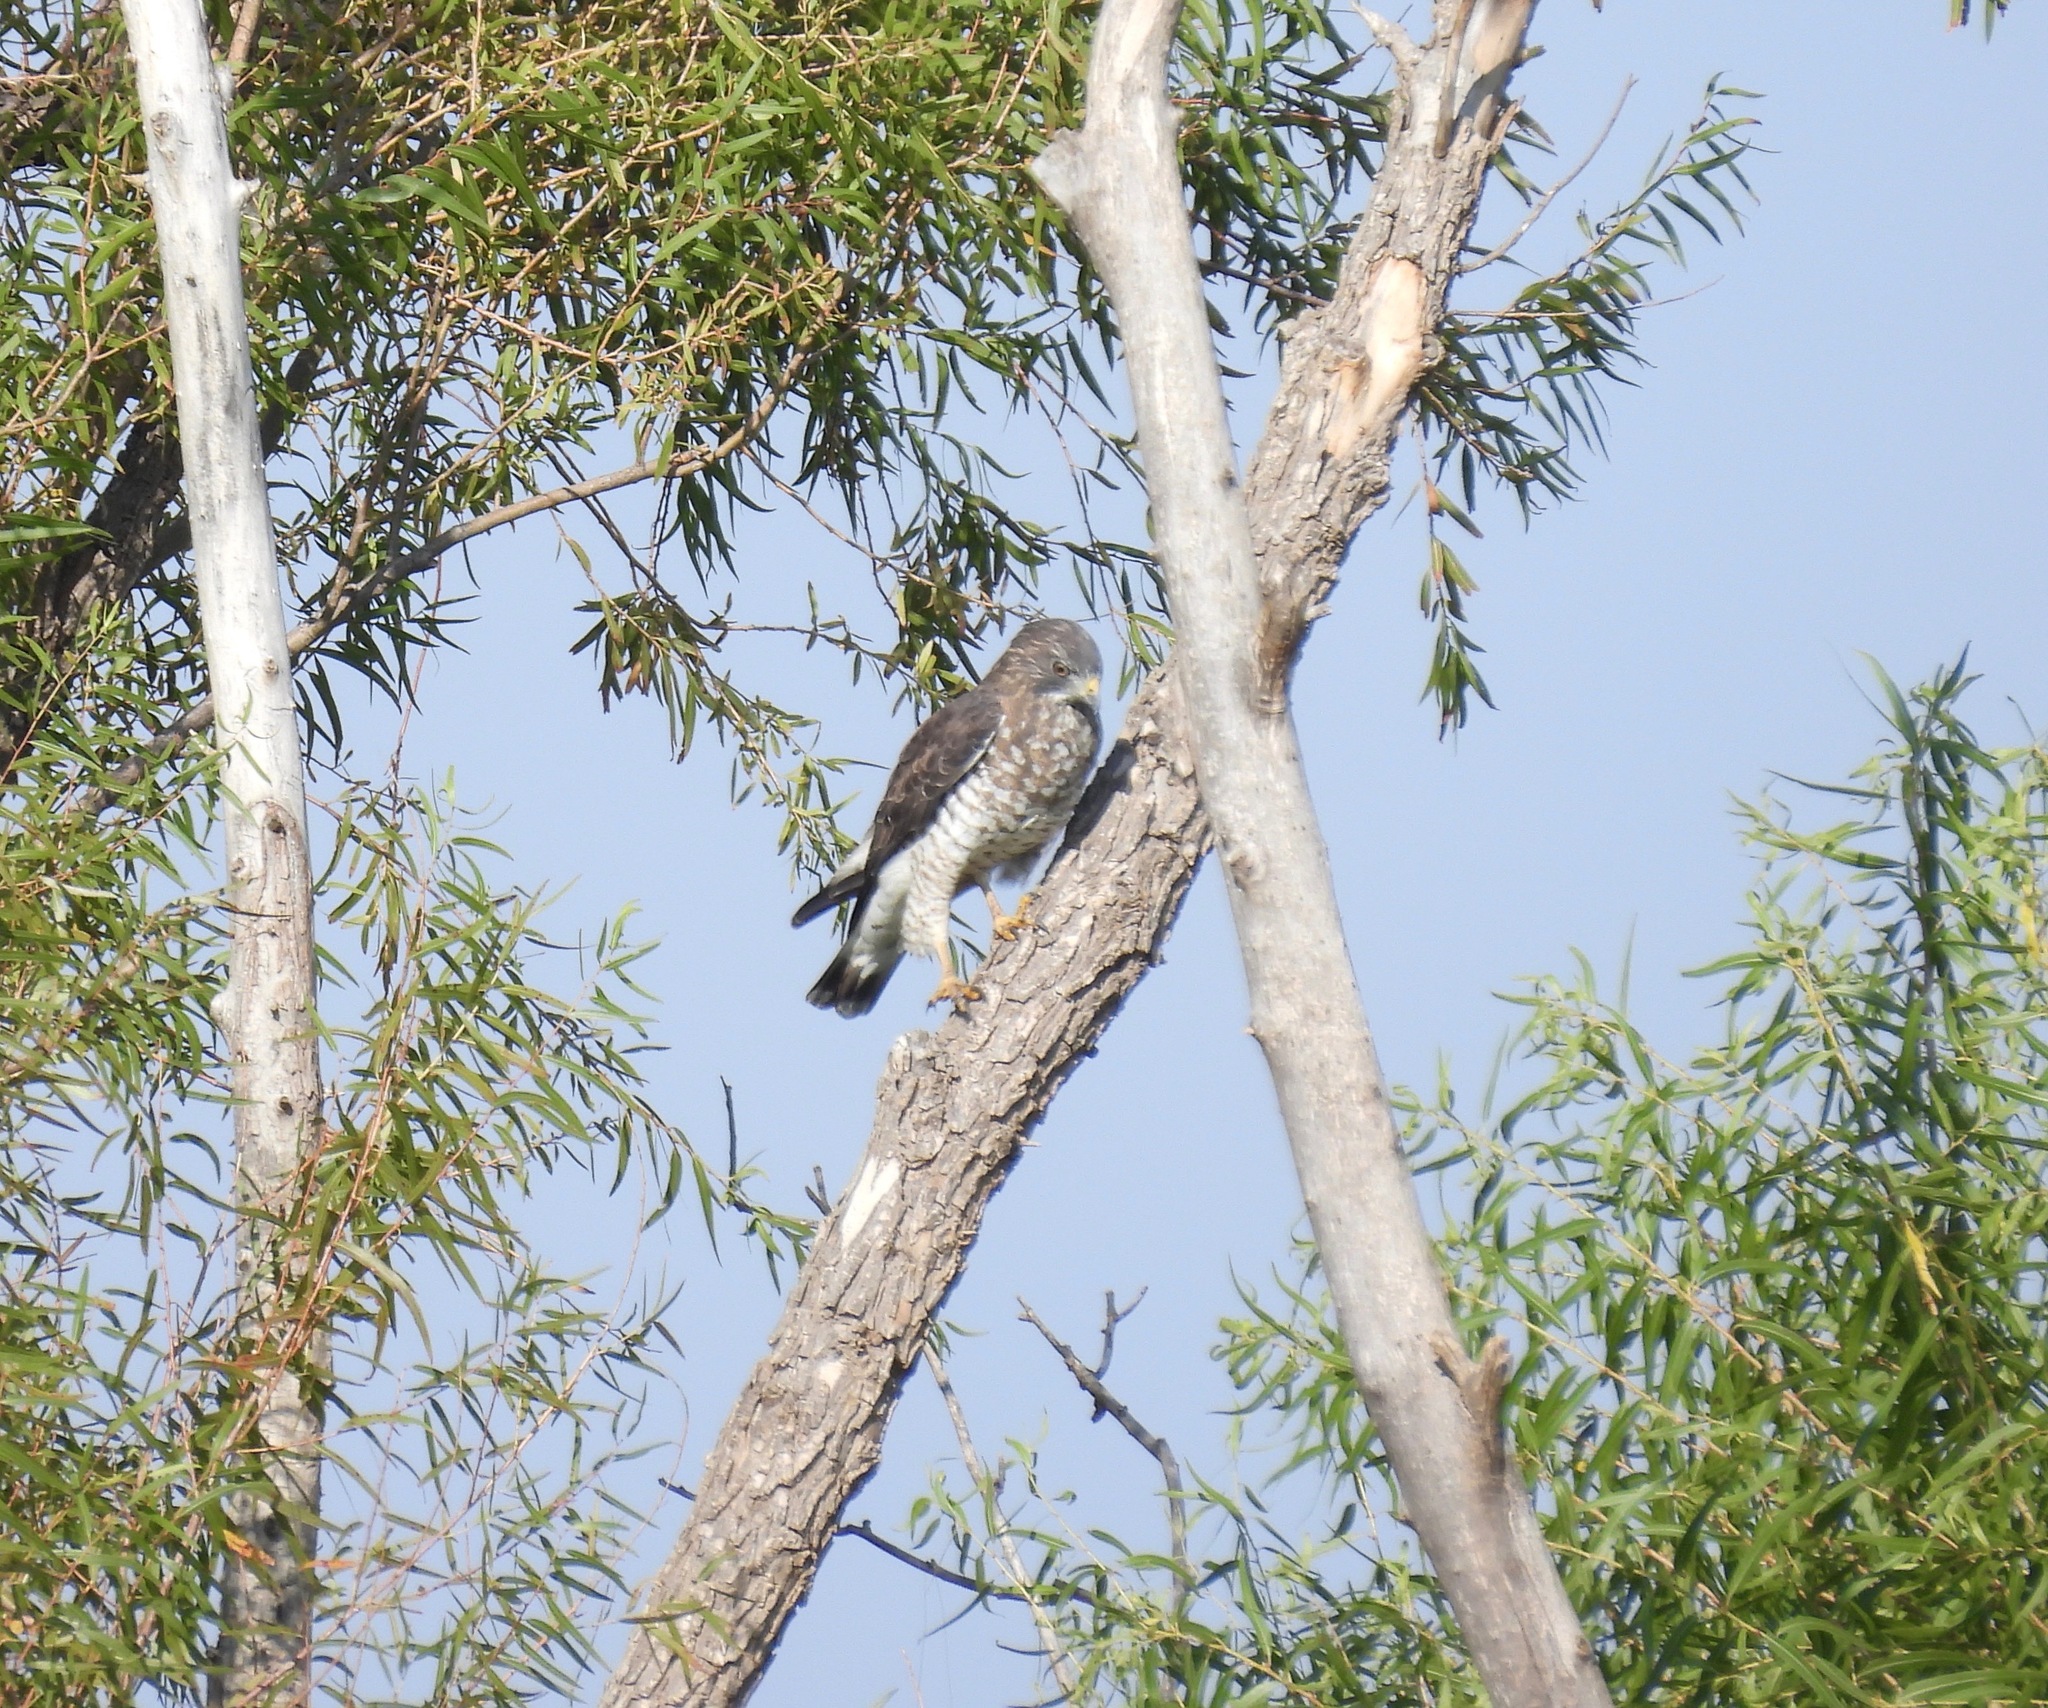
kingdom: Animalia
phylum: Chordata
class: Aves
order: Accipitriformes
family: Accipitridae
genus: Buteo
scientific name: Buteo platypterus
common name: Broad-winged hawk
